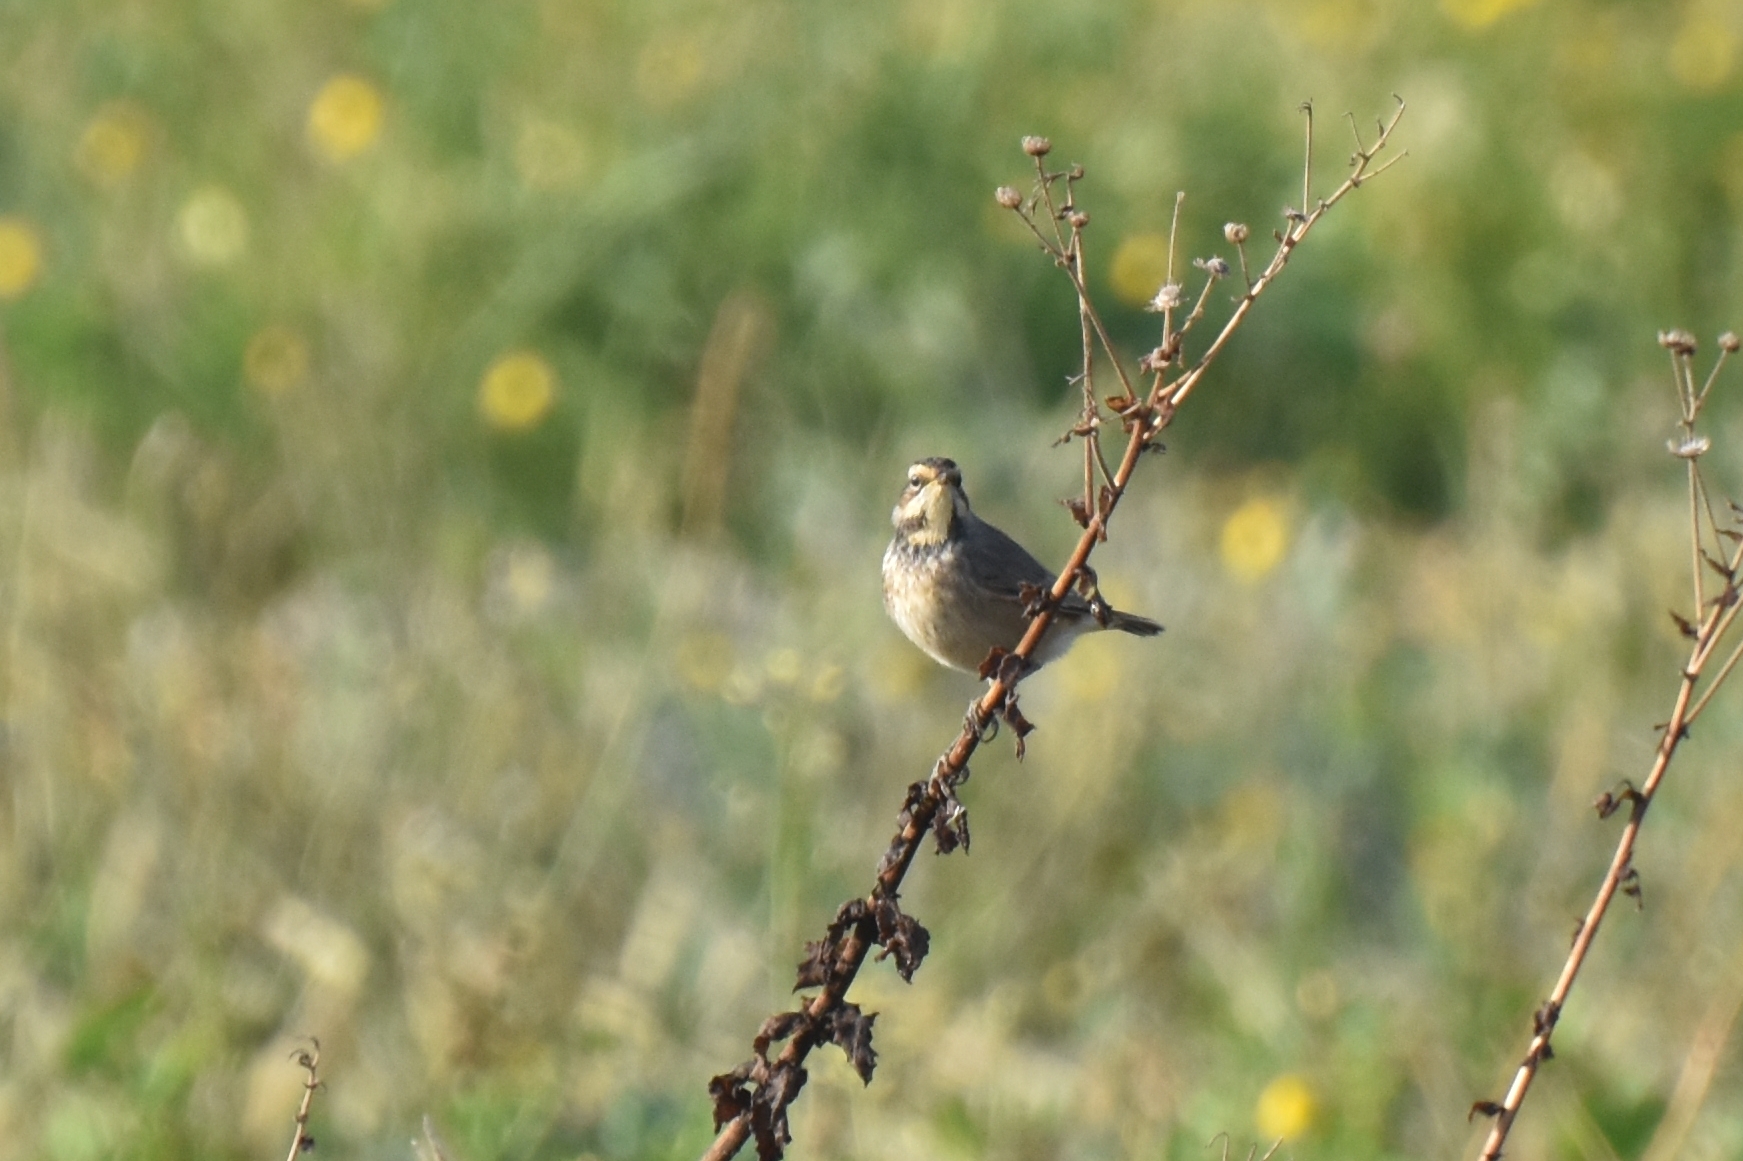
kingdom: Animalia
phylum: Chordata
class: Aves
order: Passeriformes
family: Muscicapidae
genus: Luscinia
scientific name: Luscinia svecica
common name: Bluethroat
